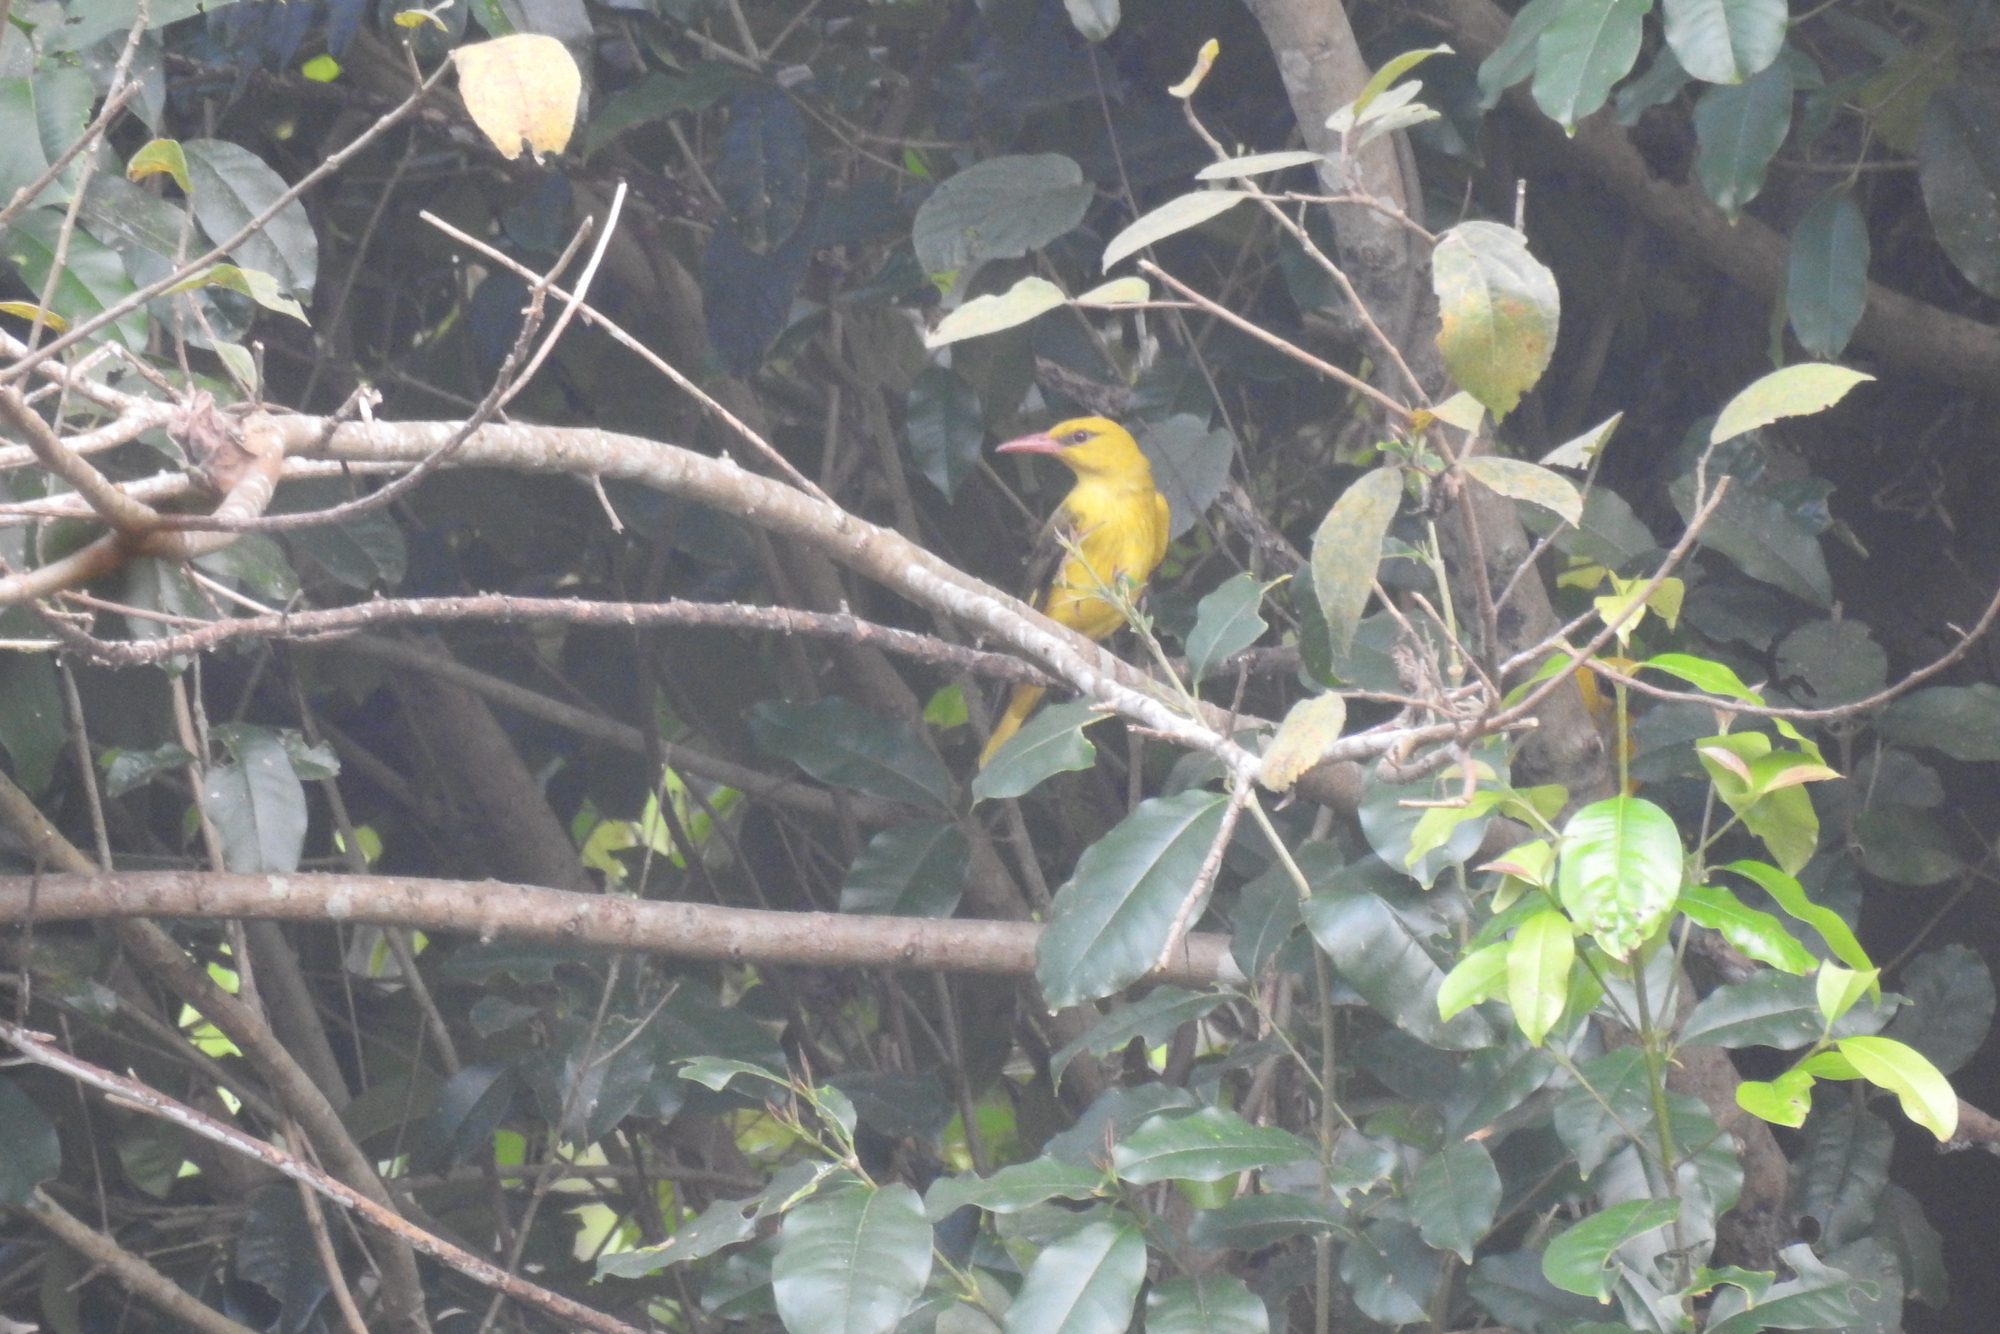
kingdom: Animalia
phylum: Chordata
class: Aves
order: Passeriformes
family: Oriolidae
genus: Oriolus
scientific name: Oriolus kundoo
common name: Indian golden oriole
